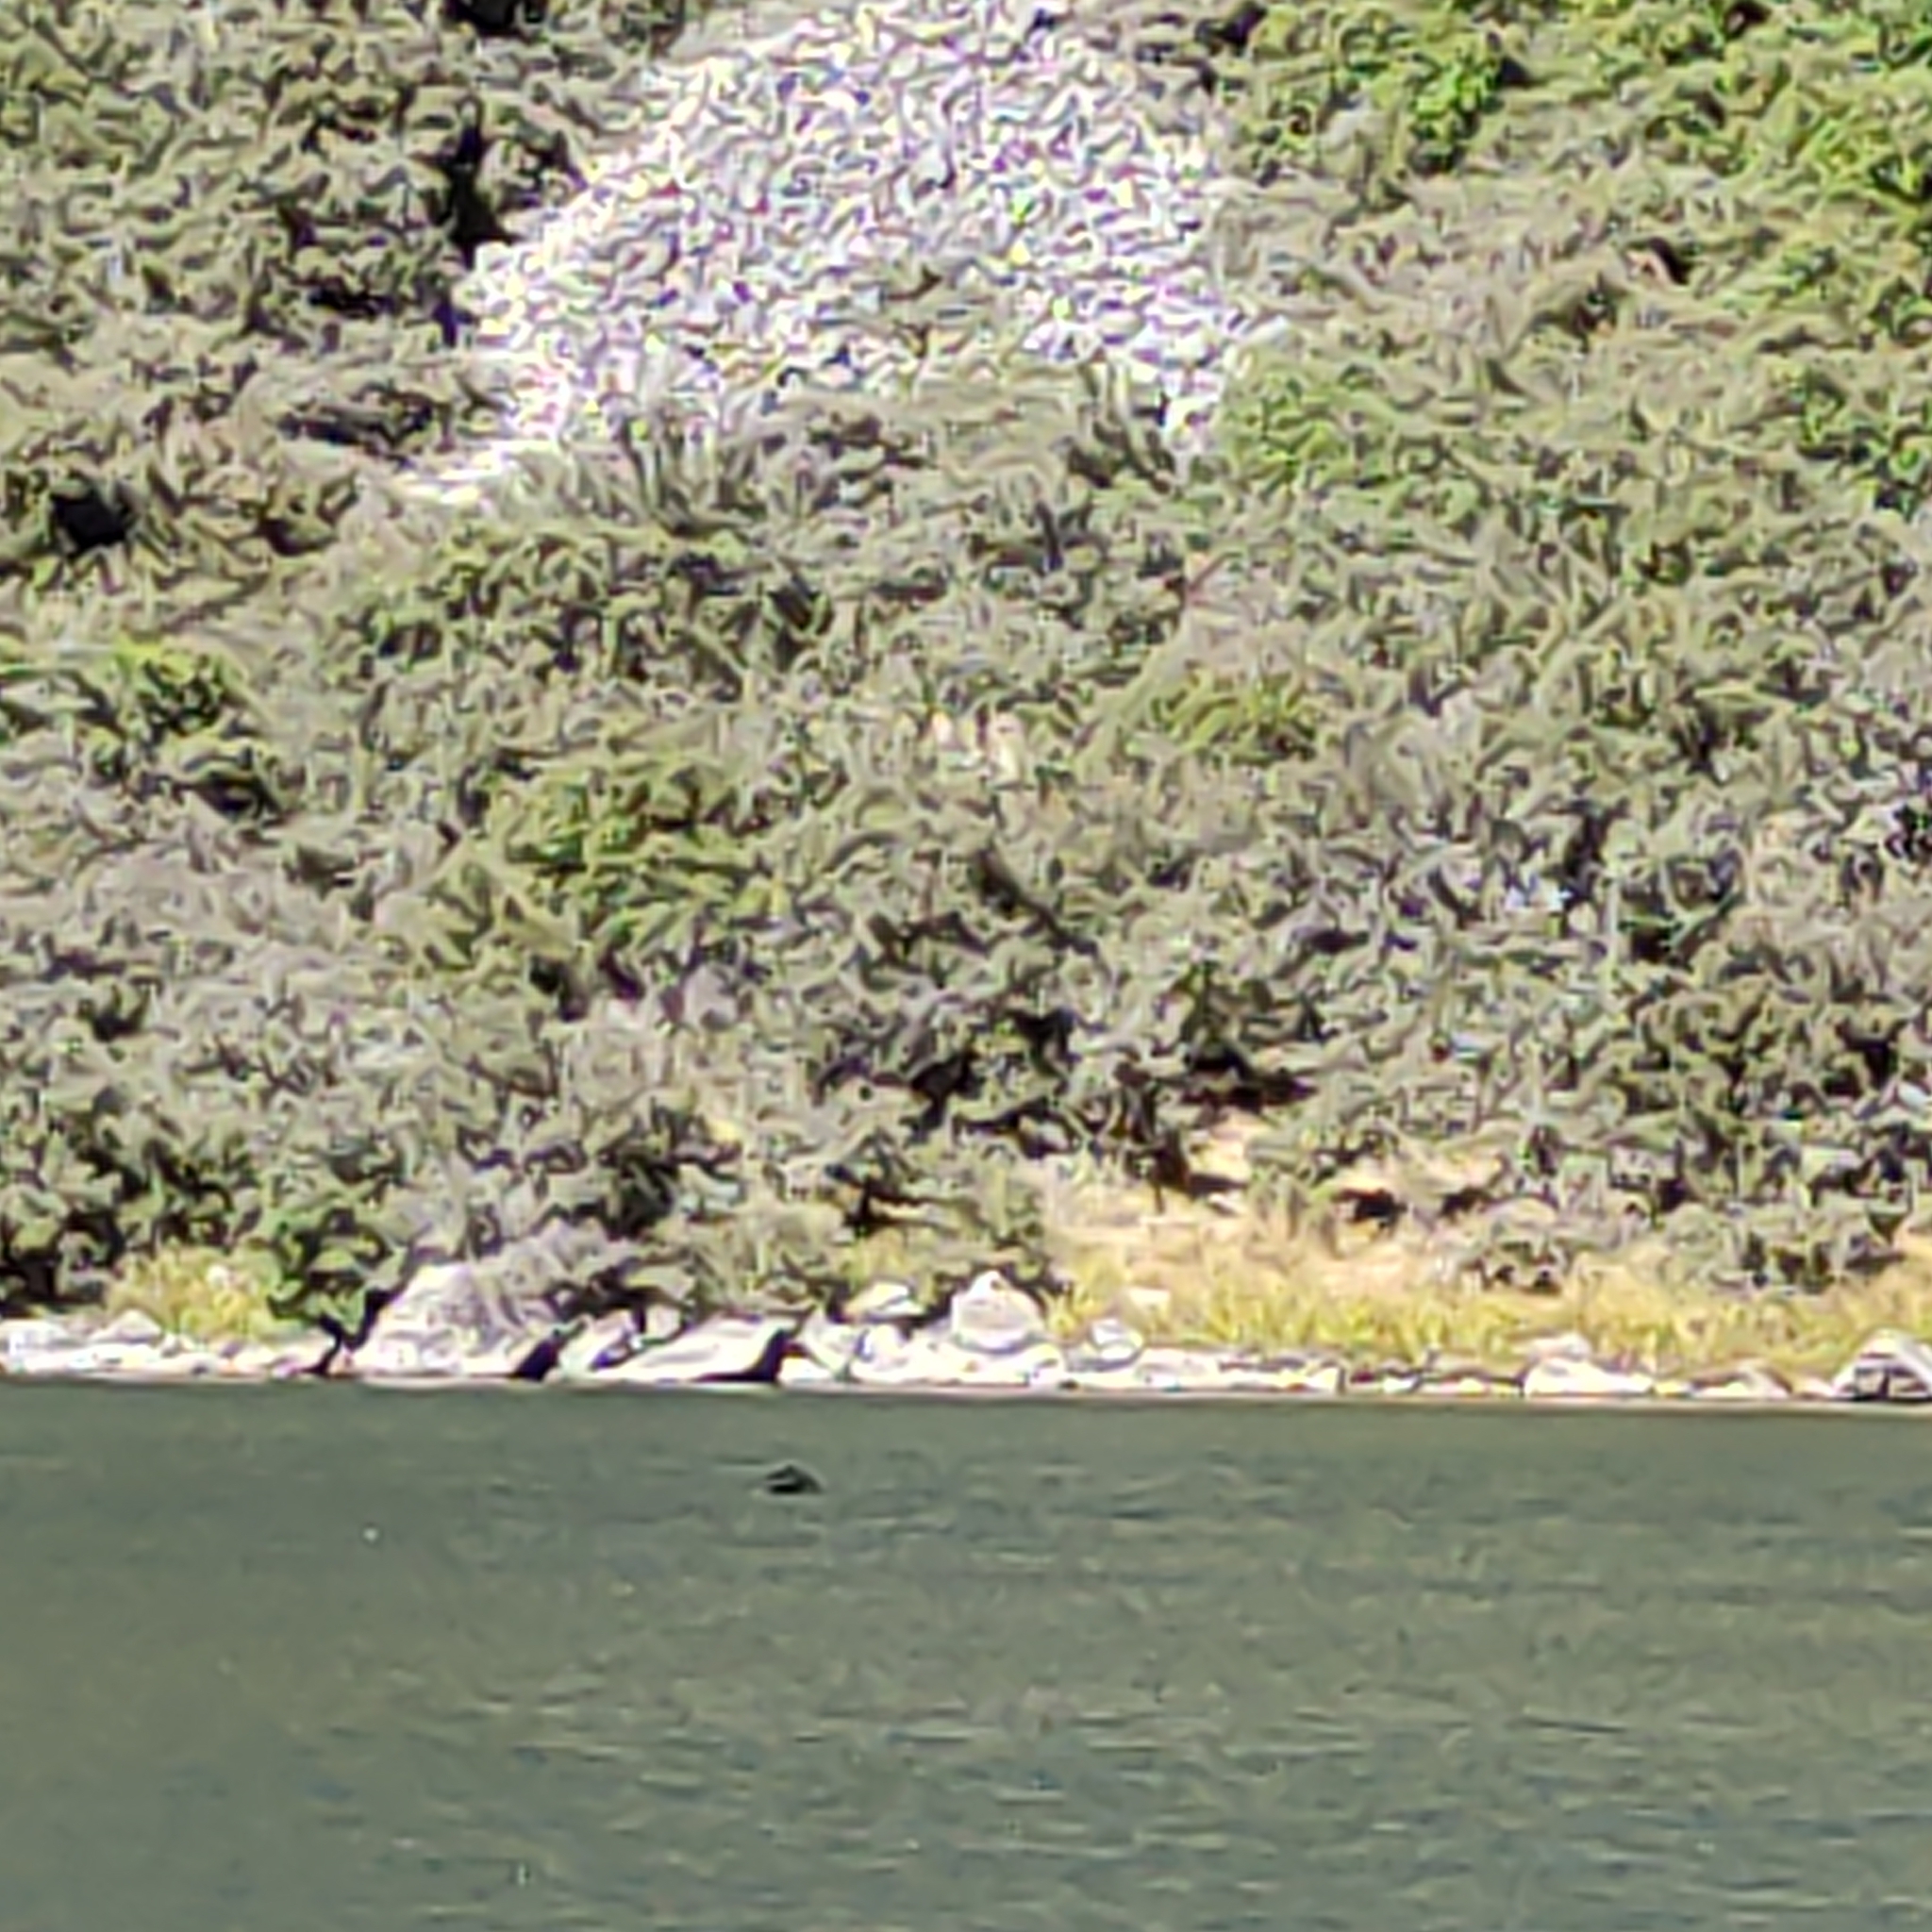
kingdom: Animalia
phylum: Chordata
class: Aves
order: Anseriformes
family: Anatidae
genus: Cygnus
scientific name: Cygnus atratus
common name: Black swan
